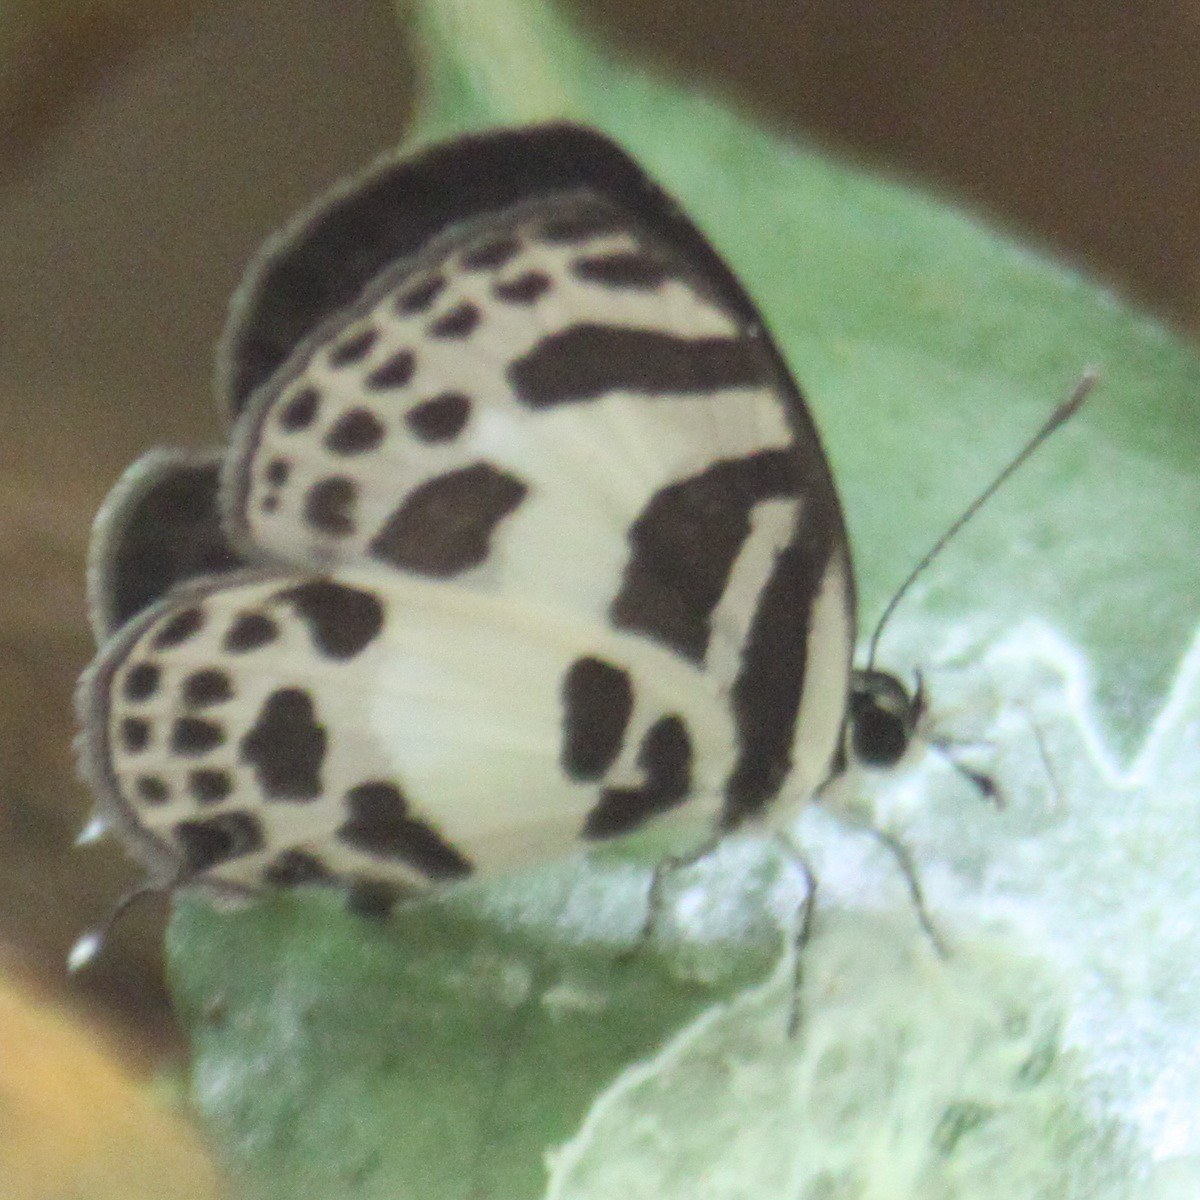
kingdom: Animalia
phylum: Arthropoda
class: Insecta
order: Lepidoptera
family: Lycaenidae
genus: Discolampa
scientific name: Discolampa ethion
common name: Banded blue pierrot
